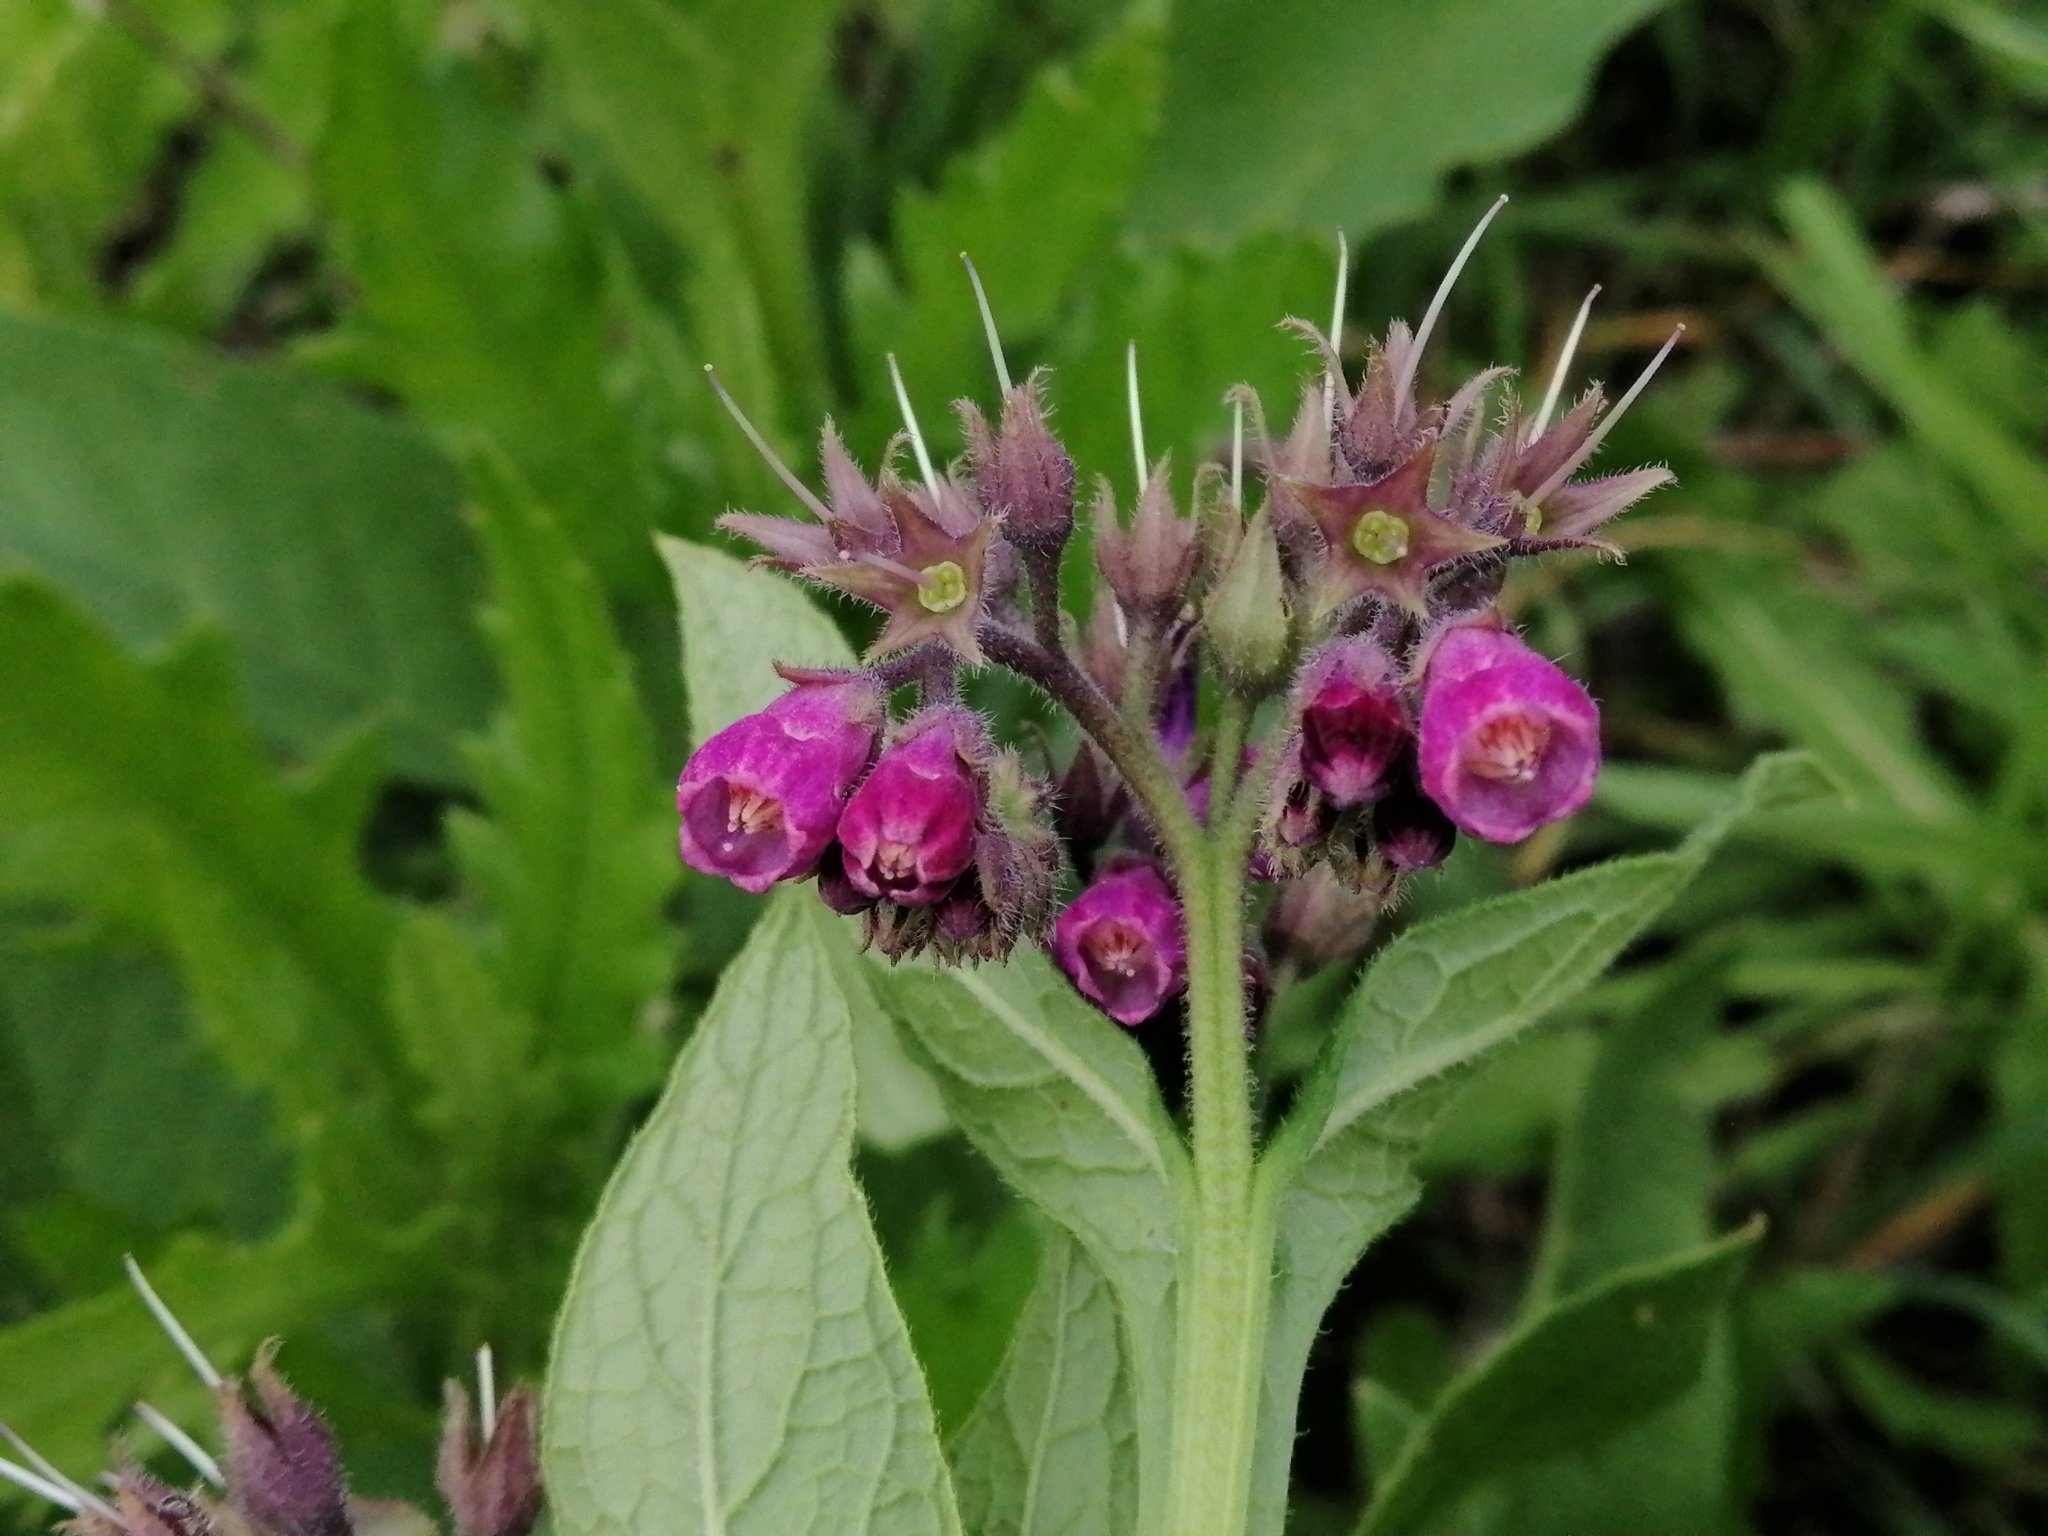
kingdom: Plantae
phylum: Tracheophyta
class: Magnoliopsida
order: Boraginales
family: Boraginaceae
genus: Symphytum
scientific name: Symphytum officinale
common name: Common comfrey
